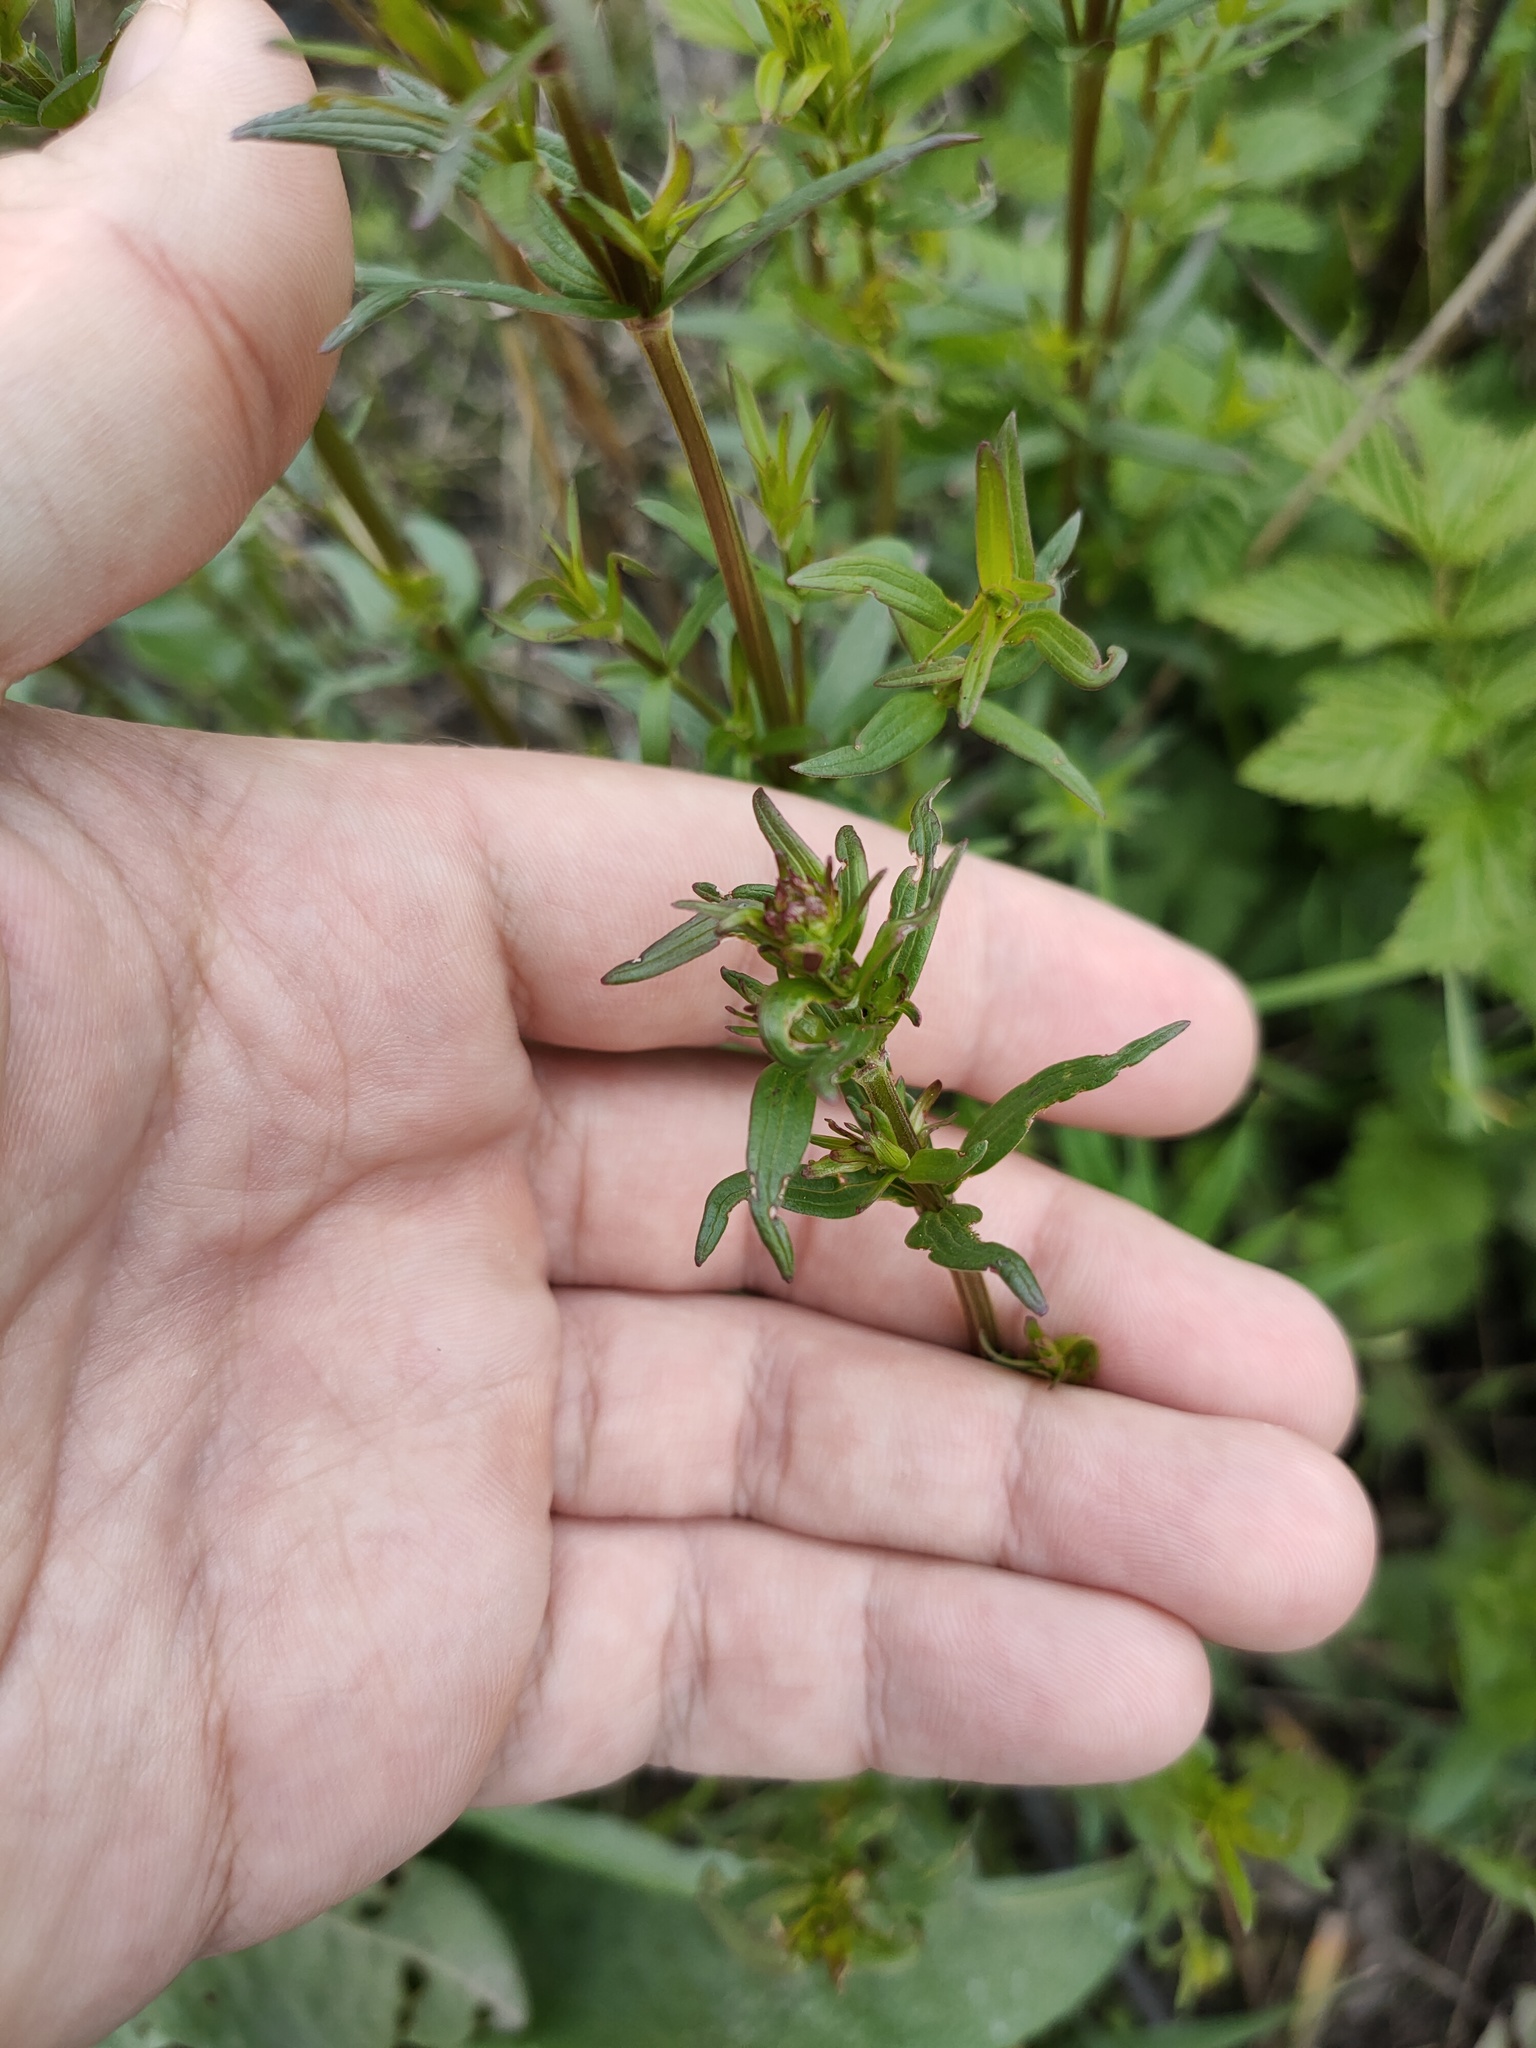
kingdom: Plantae
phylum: Tracheophyta
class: Magnoliopsida
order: Gentianales
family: Rubiaceae
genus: Galium
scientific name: Galium boreale
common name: Northern bedstraw
